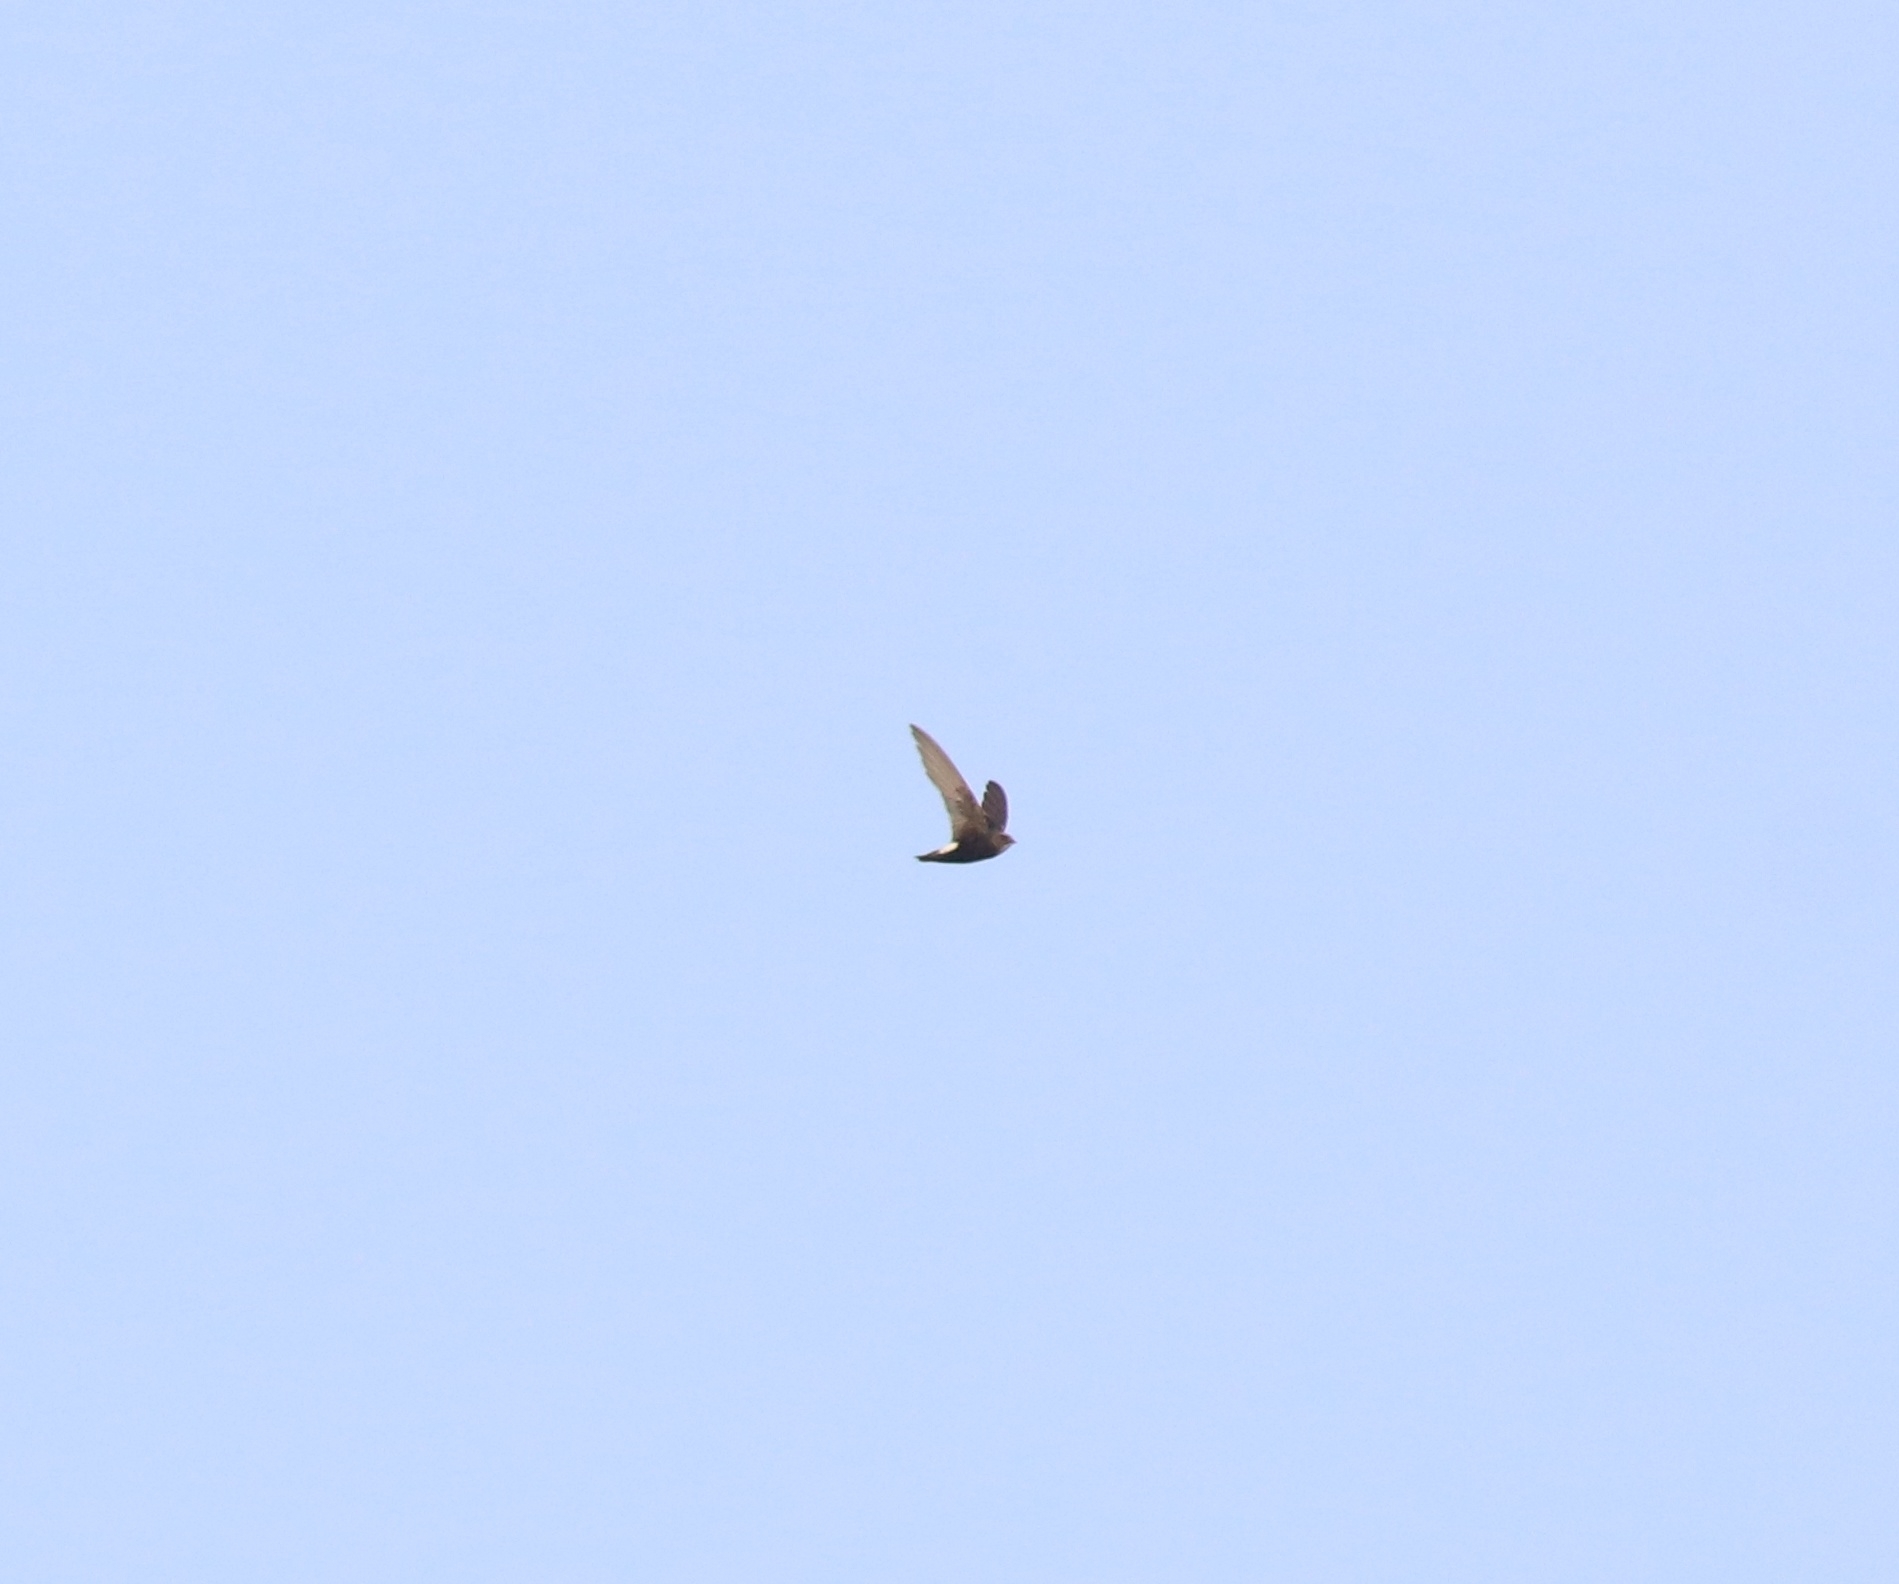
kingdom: Animalia
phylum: Chordata
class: Aves
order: Apodiformes
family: Apodidae
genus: Apus
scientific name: Apus affinis
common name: Little swift
